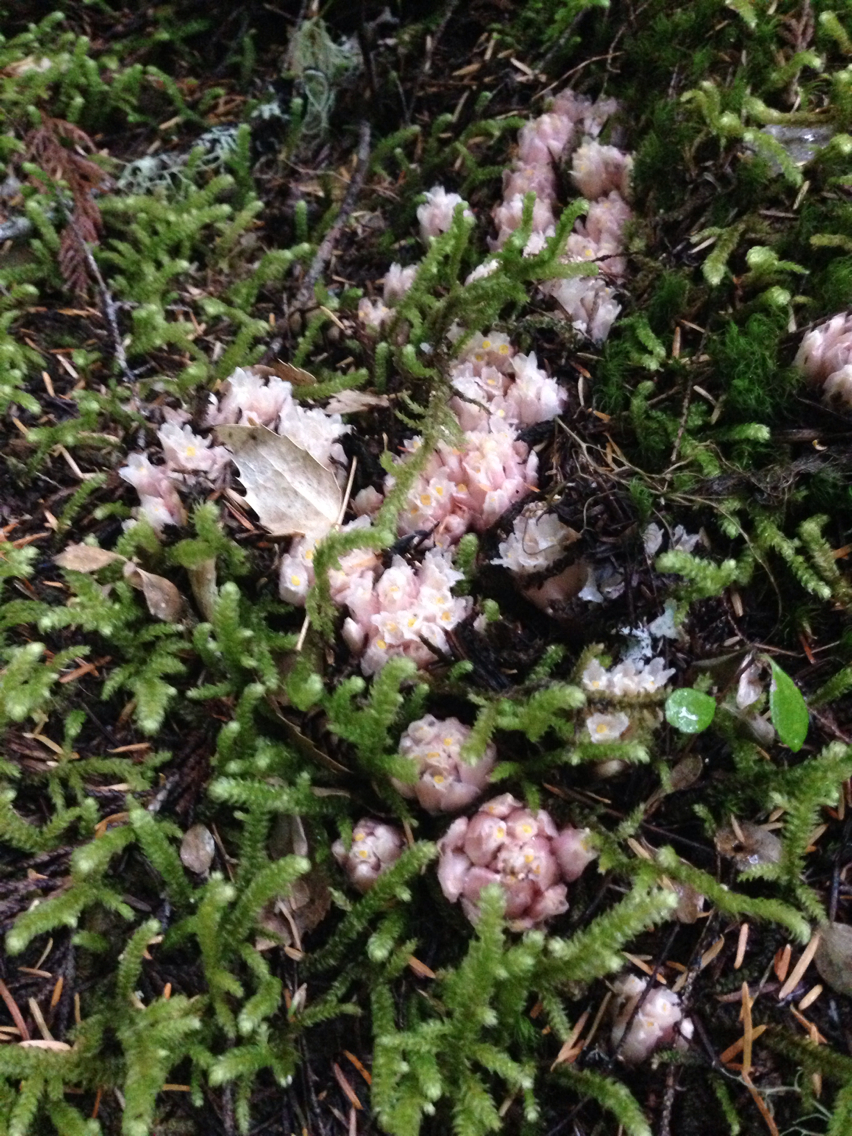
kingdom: Plantae
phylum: Tracheophyta
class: Magnoliopsida
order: Ericales
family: Ericaceae
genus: Hemitomes
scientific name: Hemitomes congestum
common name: Cone plant
